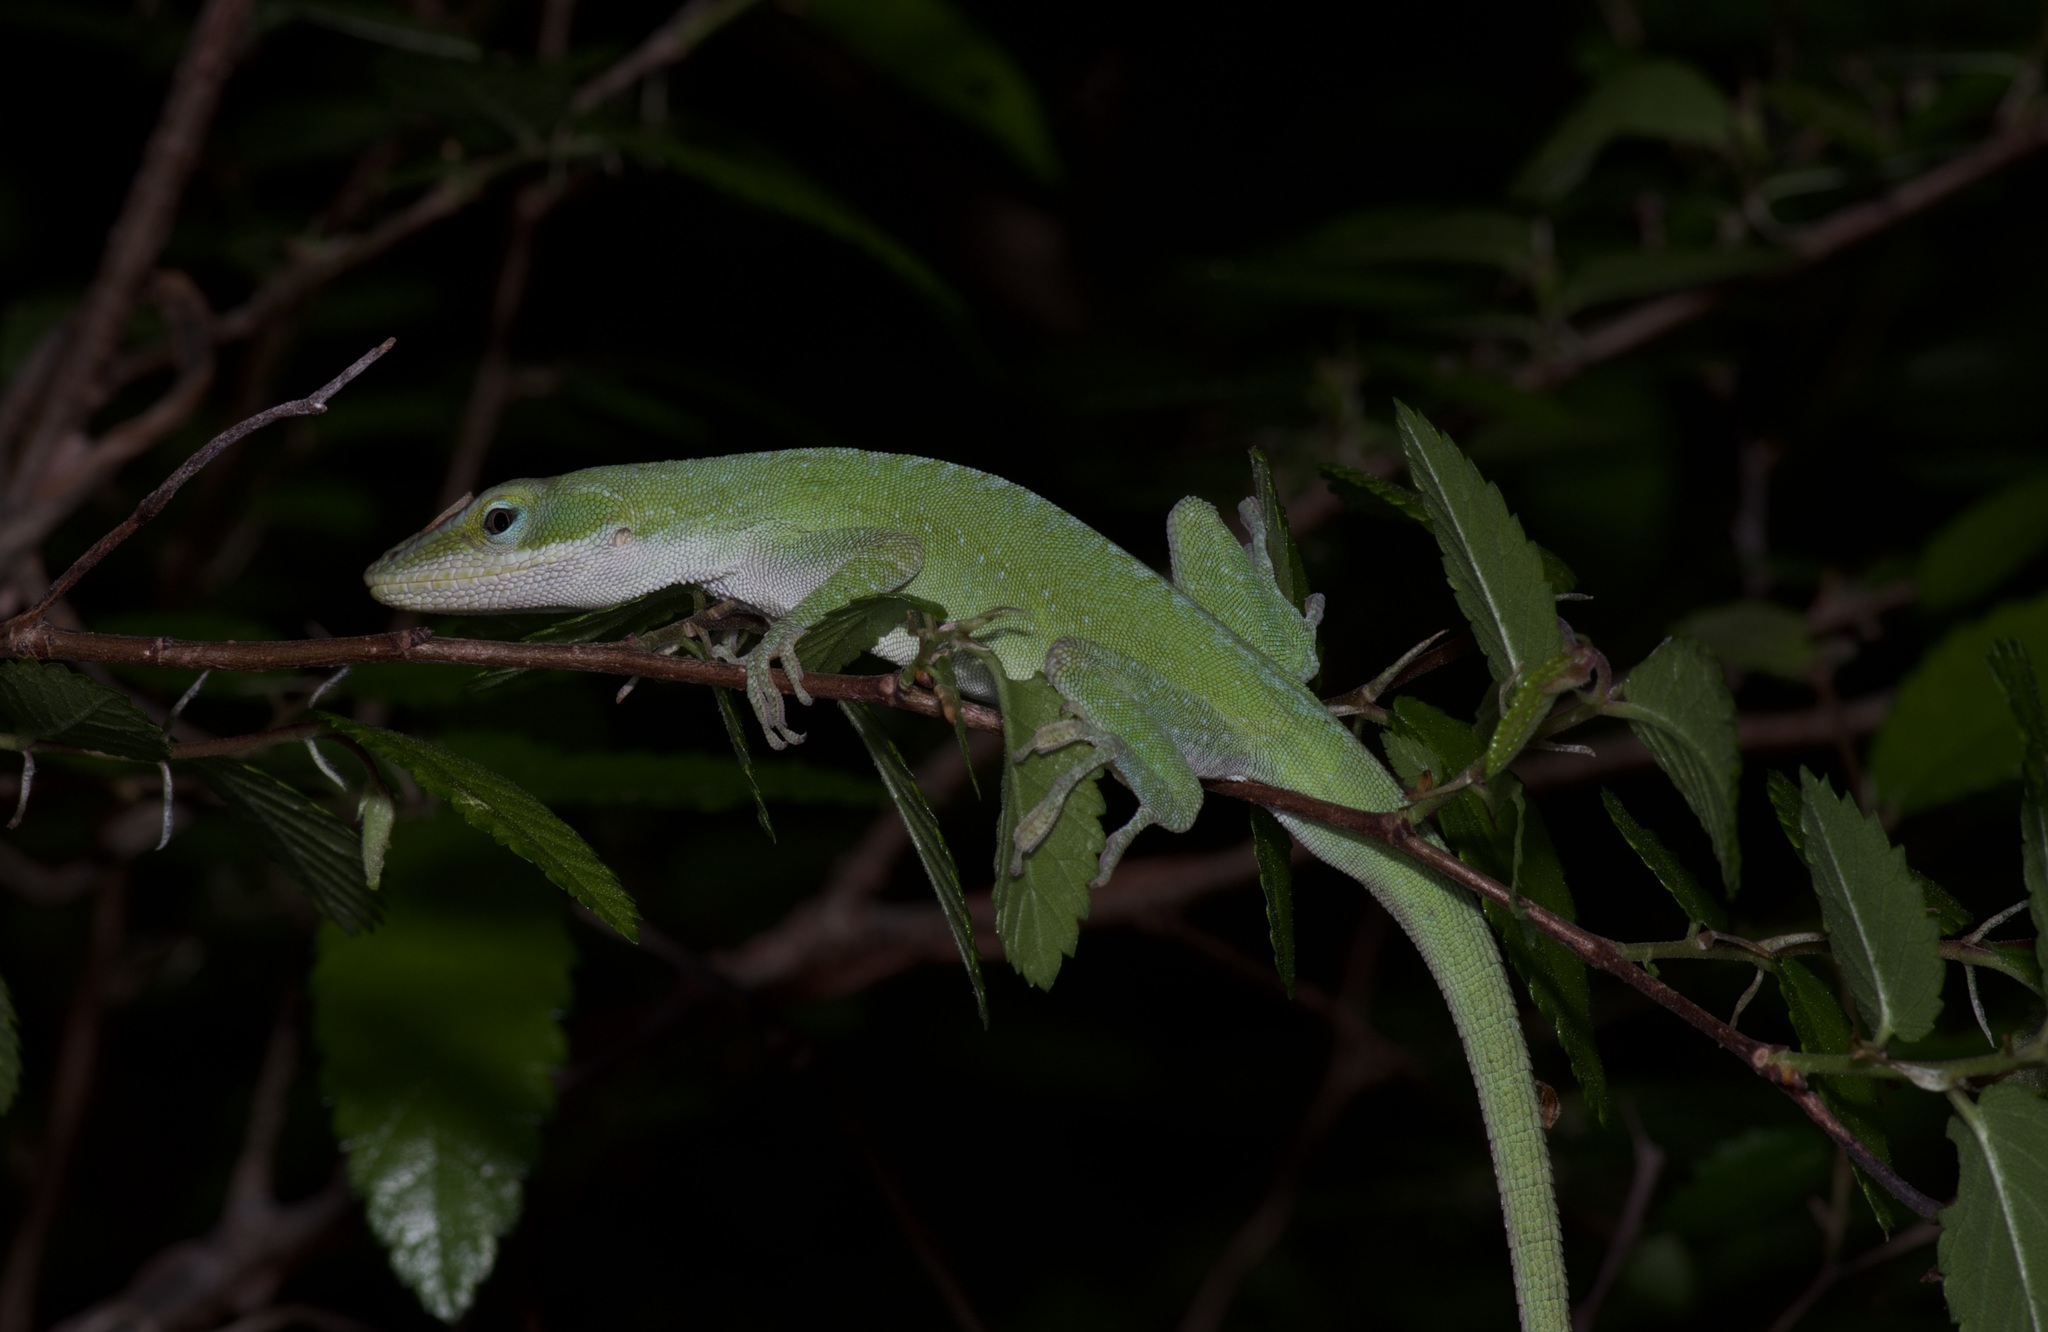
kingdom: Animalia
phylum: Chordata
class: Squamata
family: Dactyloidae
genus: Anolis
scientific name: Anolis carolinensis
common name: Green anole
